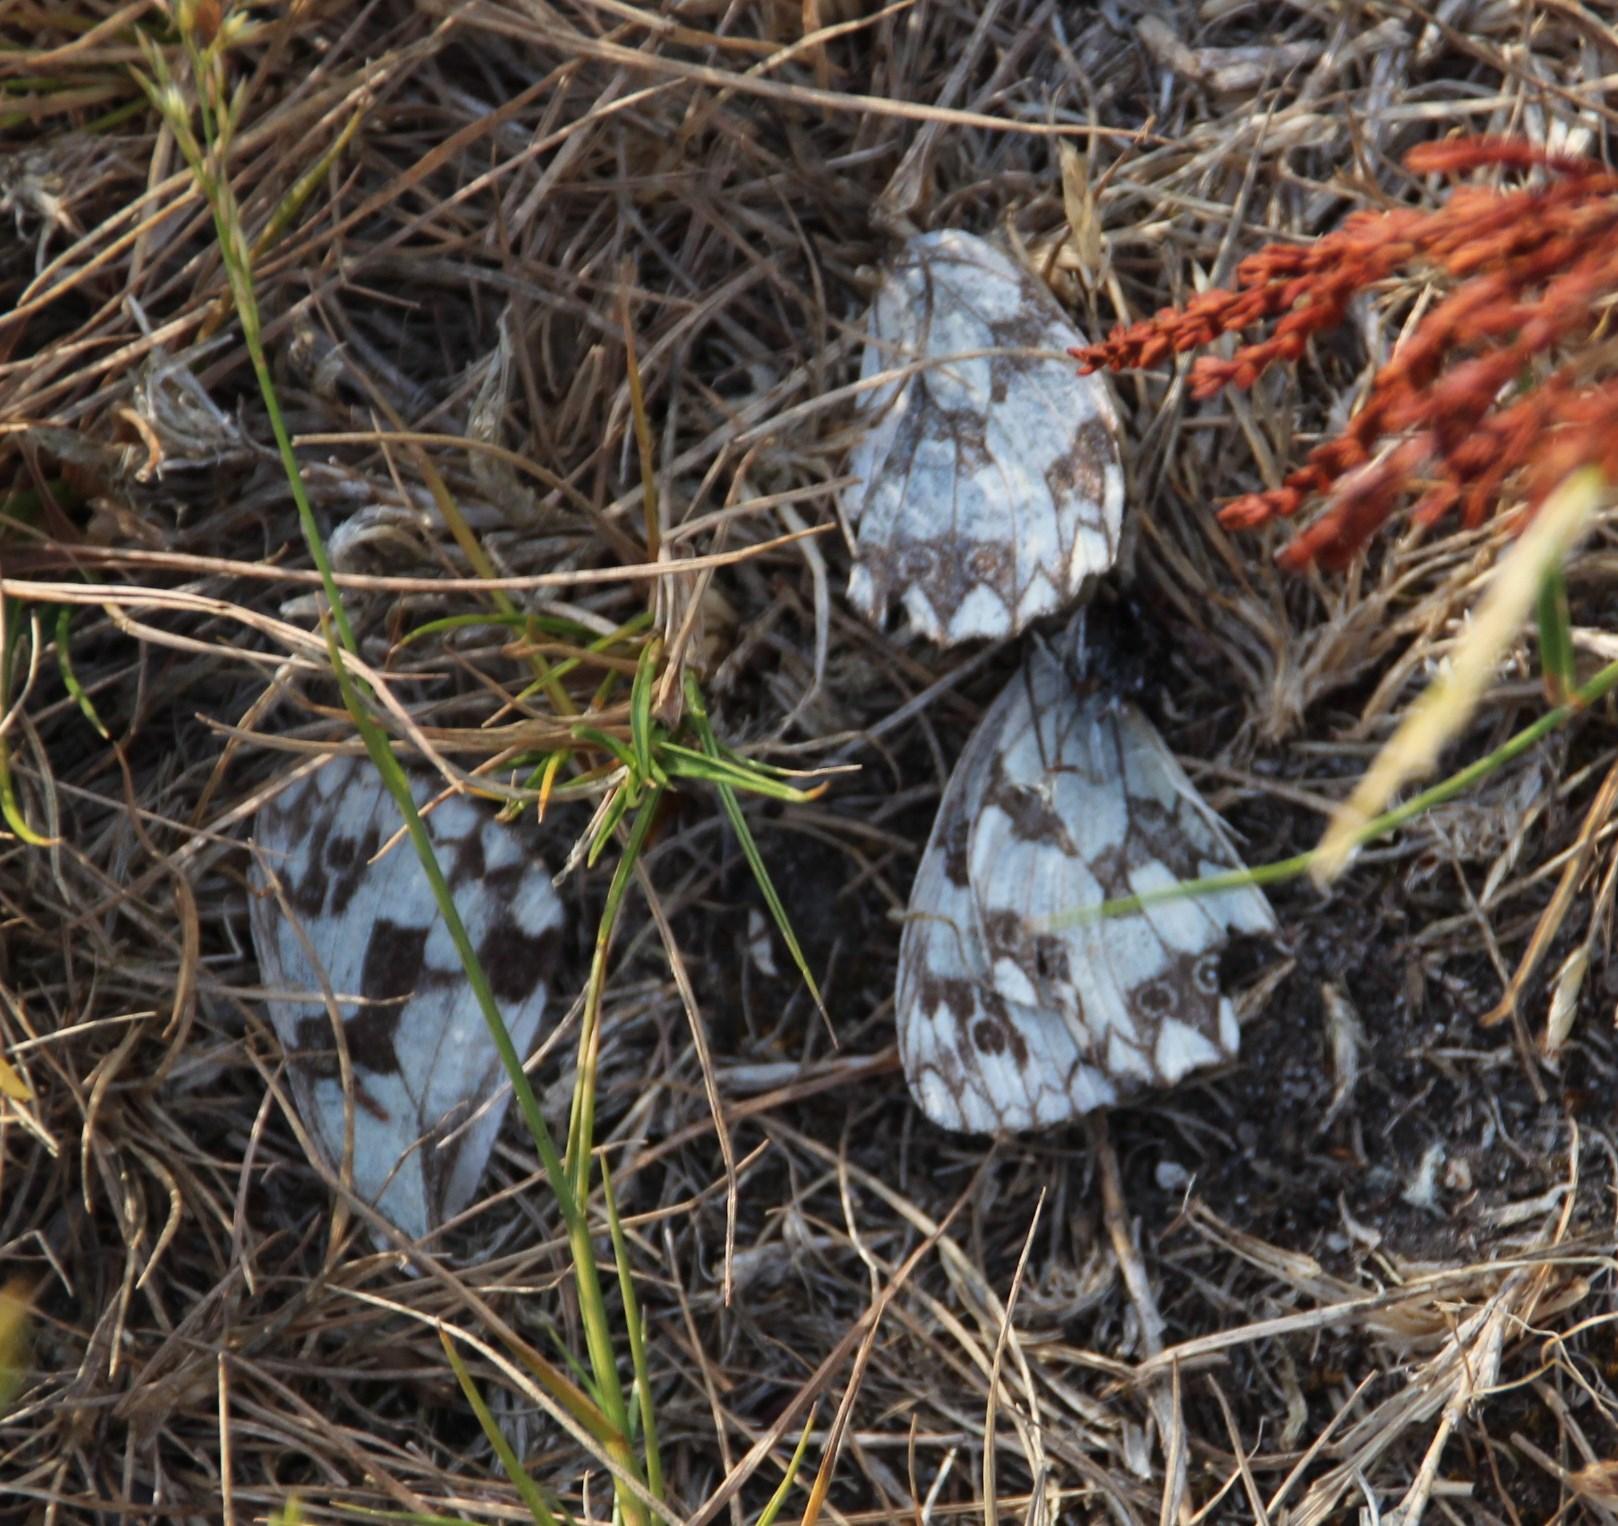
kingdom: Animalia
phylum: Arthropoda
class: Insecta
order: Lepidoptera
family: Nymphalidae
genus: Melanargia
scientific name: Melanargia lachesis
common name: Iberian marbled white
